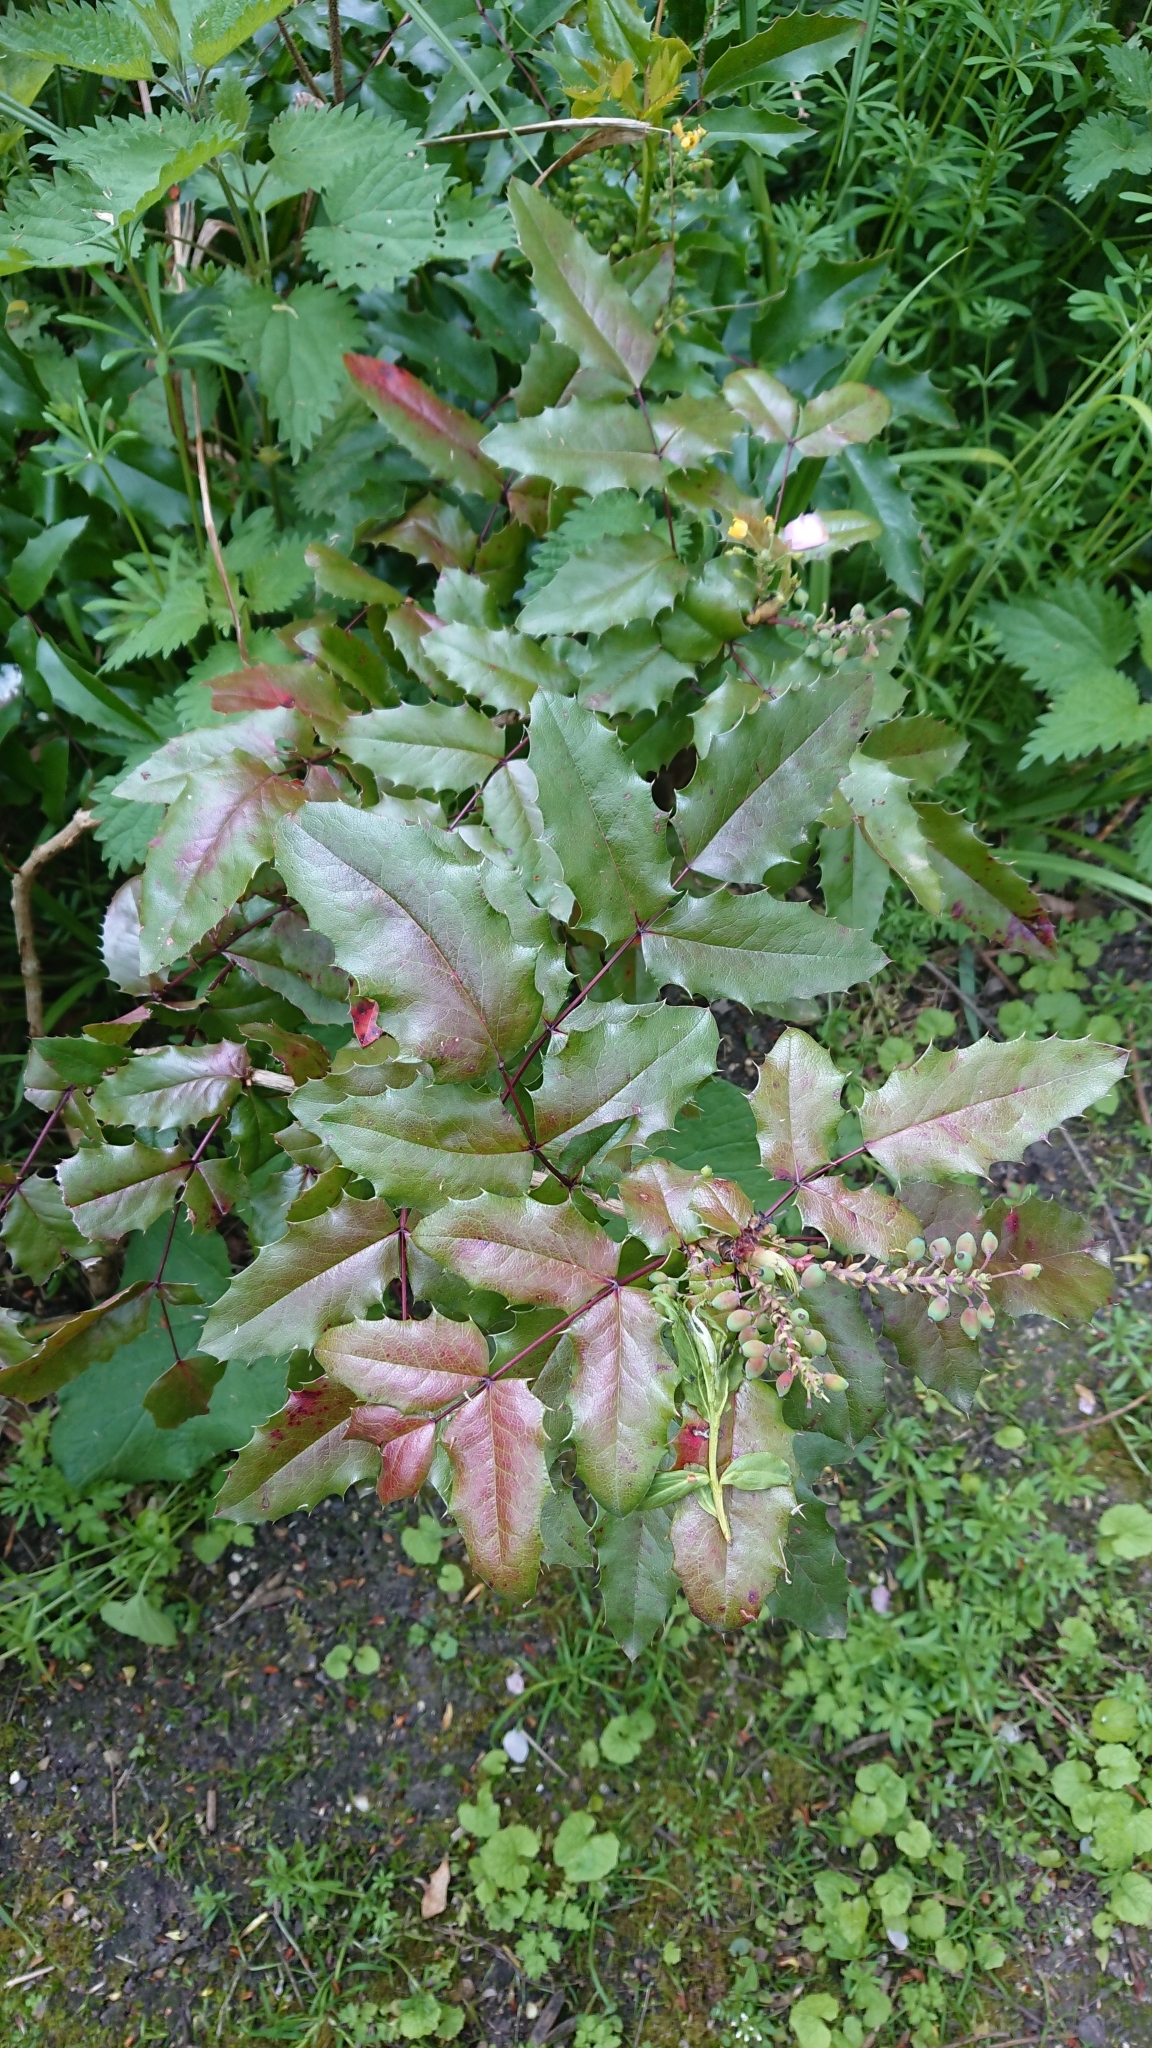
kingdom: Plantae
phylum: Tracheophyta
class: Magnoliopsida
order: Ranunculales
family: Berberidaceae
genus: Mahonia
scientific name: Mahonia aquifolium
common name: Oregon-grape
